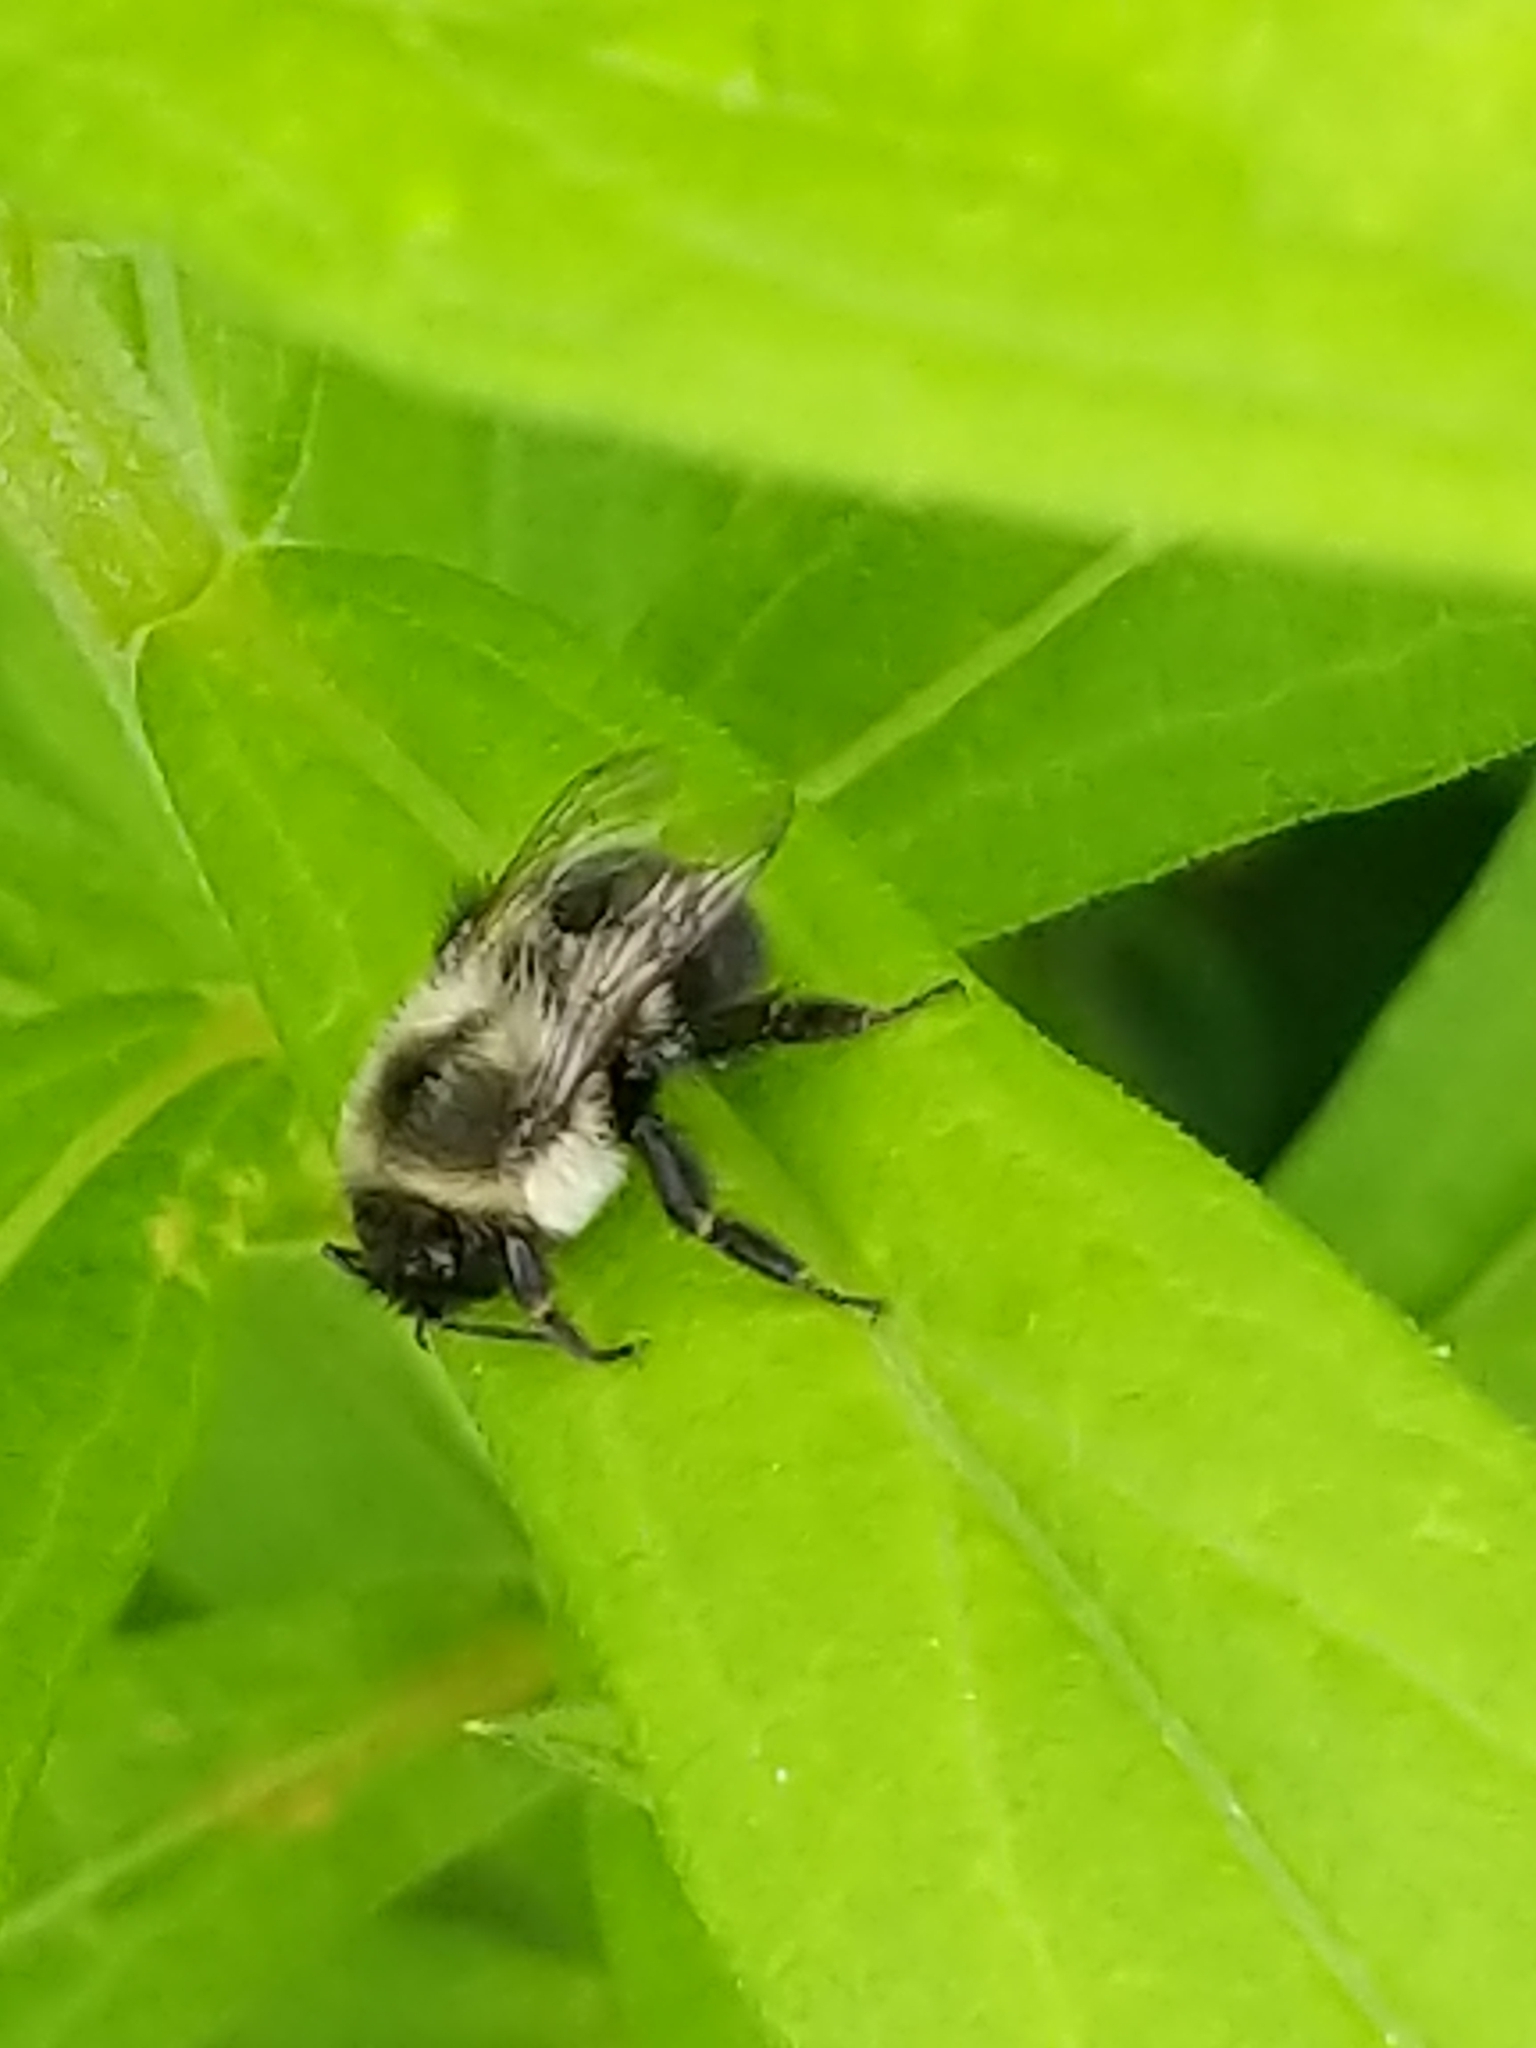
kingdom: Animalia
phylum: Arthropoda
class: Insecta
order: Hymenoptera
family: Apidae
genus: Bombus
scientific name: Bombus impatiens
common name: Common eastern bumble bee
